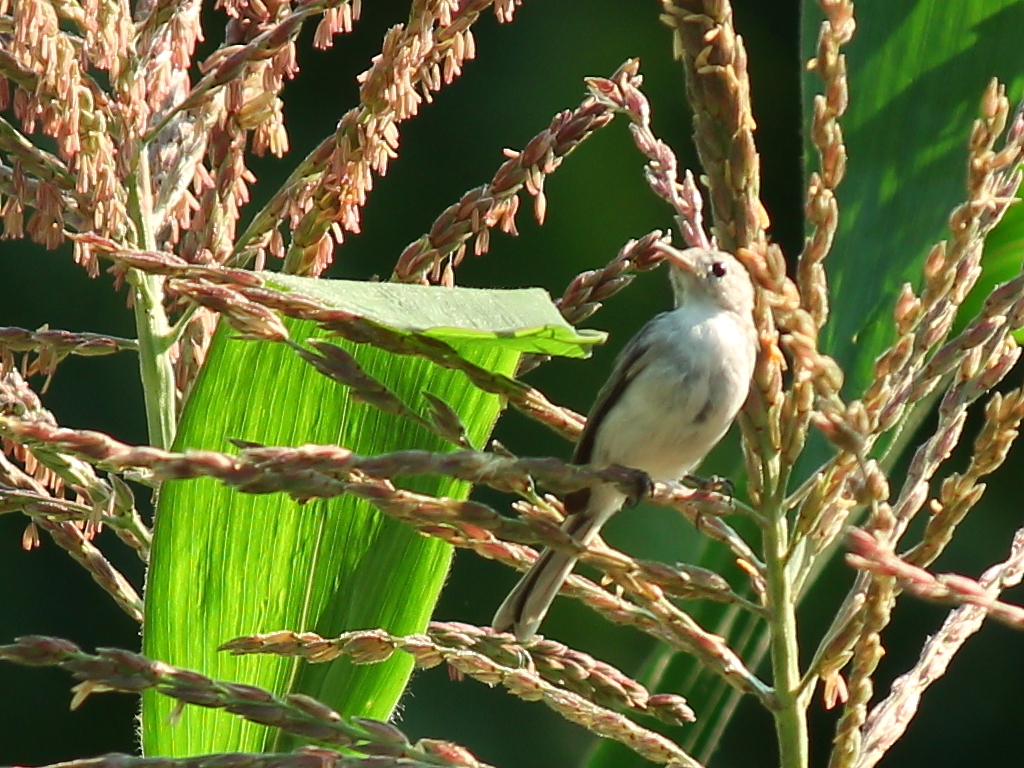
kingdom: Animalia
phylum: Chordata
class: Aves
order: Passeriformes
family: Polioptilidae
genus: Polioptila
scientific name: Polioptila caerulea
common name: Blue-gray gnatcatcher
